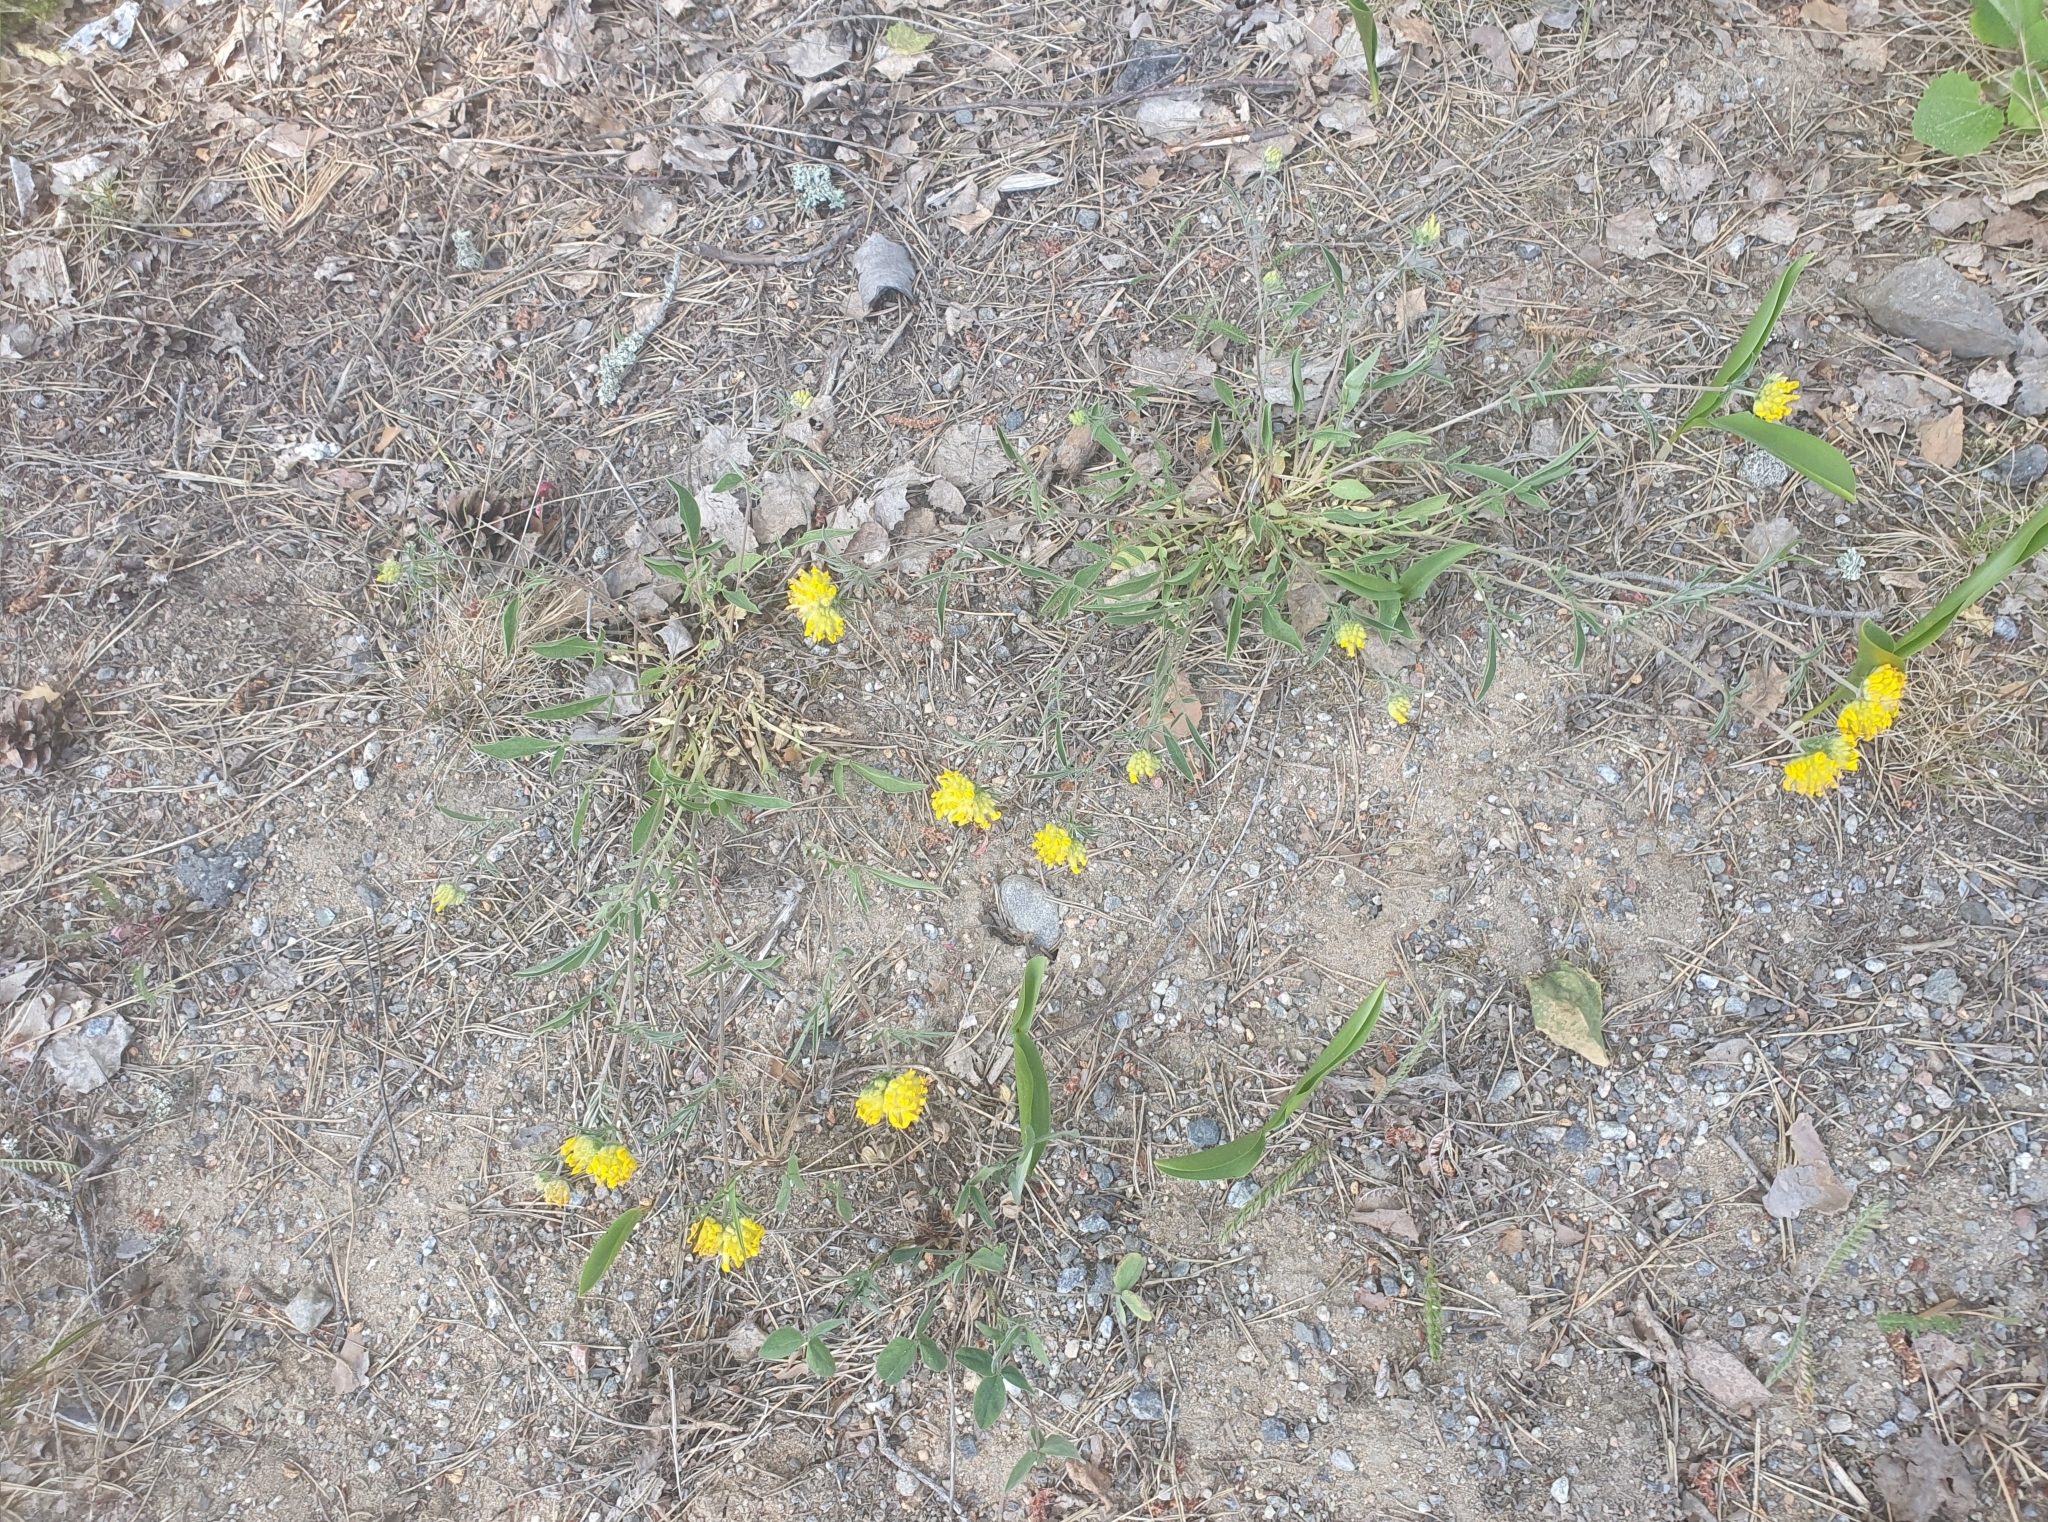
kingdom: Plantae
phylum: Tracheophyta
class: Magnoliopsida
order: Fabales
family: Fabaceae
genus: Anthyllis
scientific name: Anthyllis vulneraria
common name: Kidney vetch
